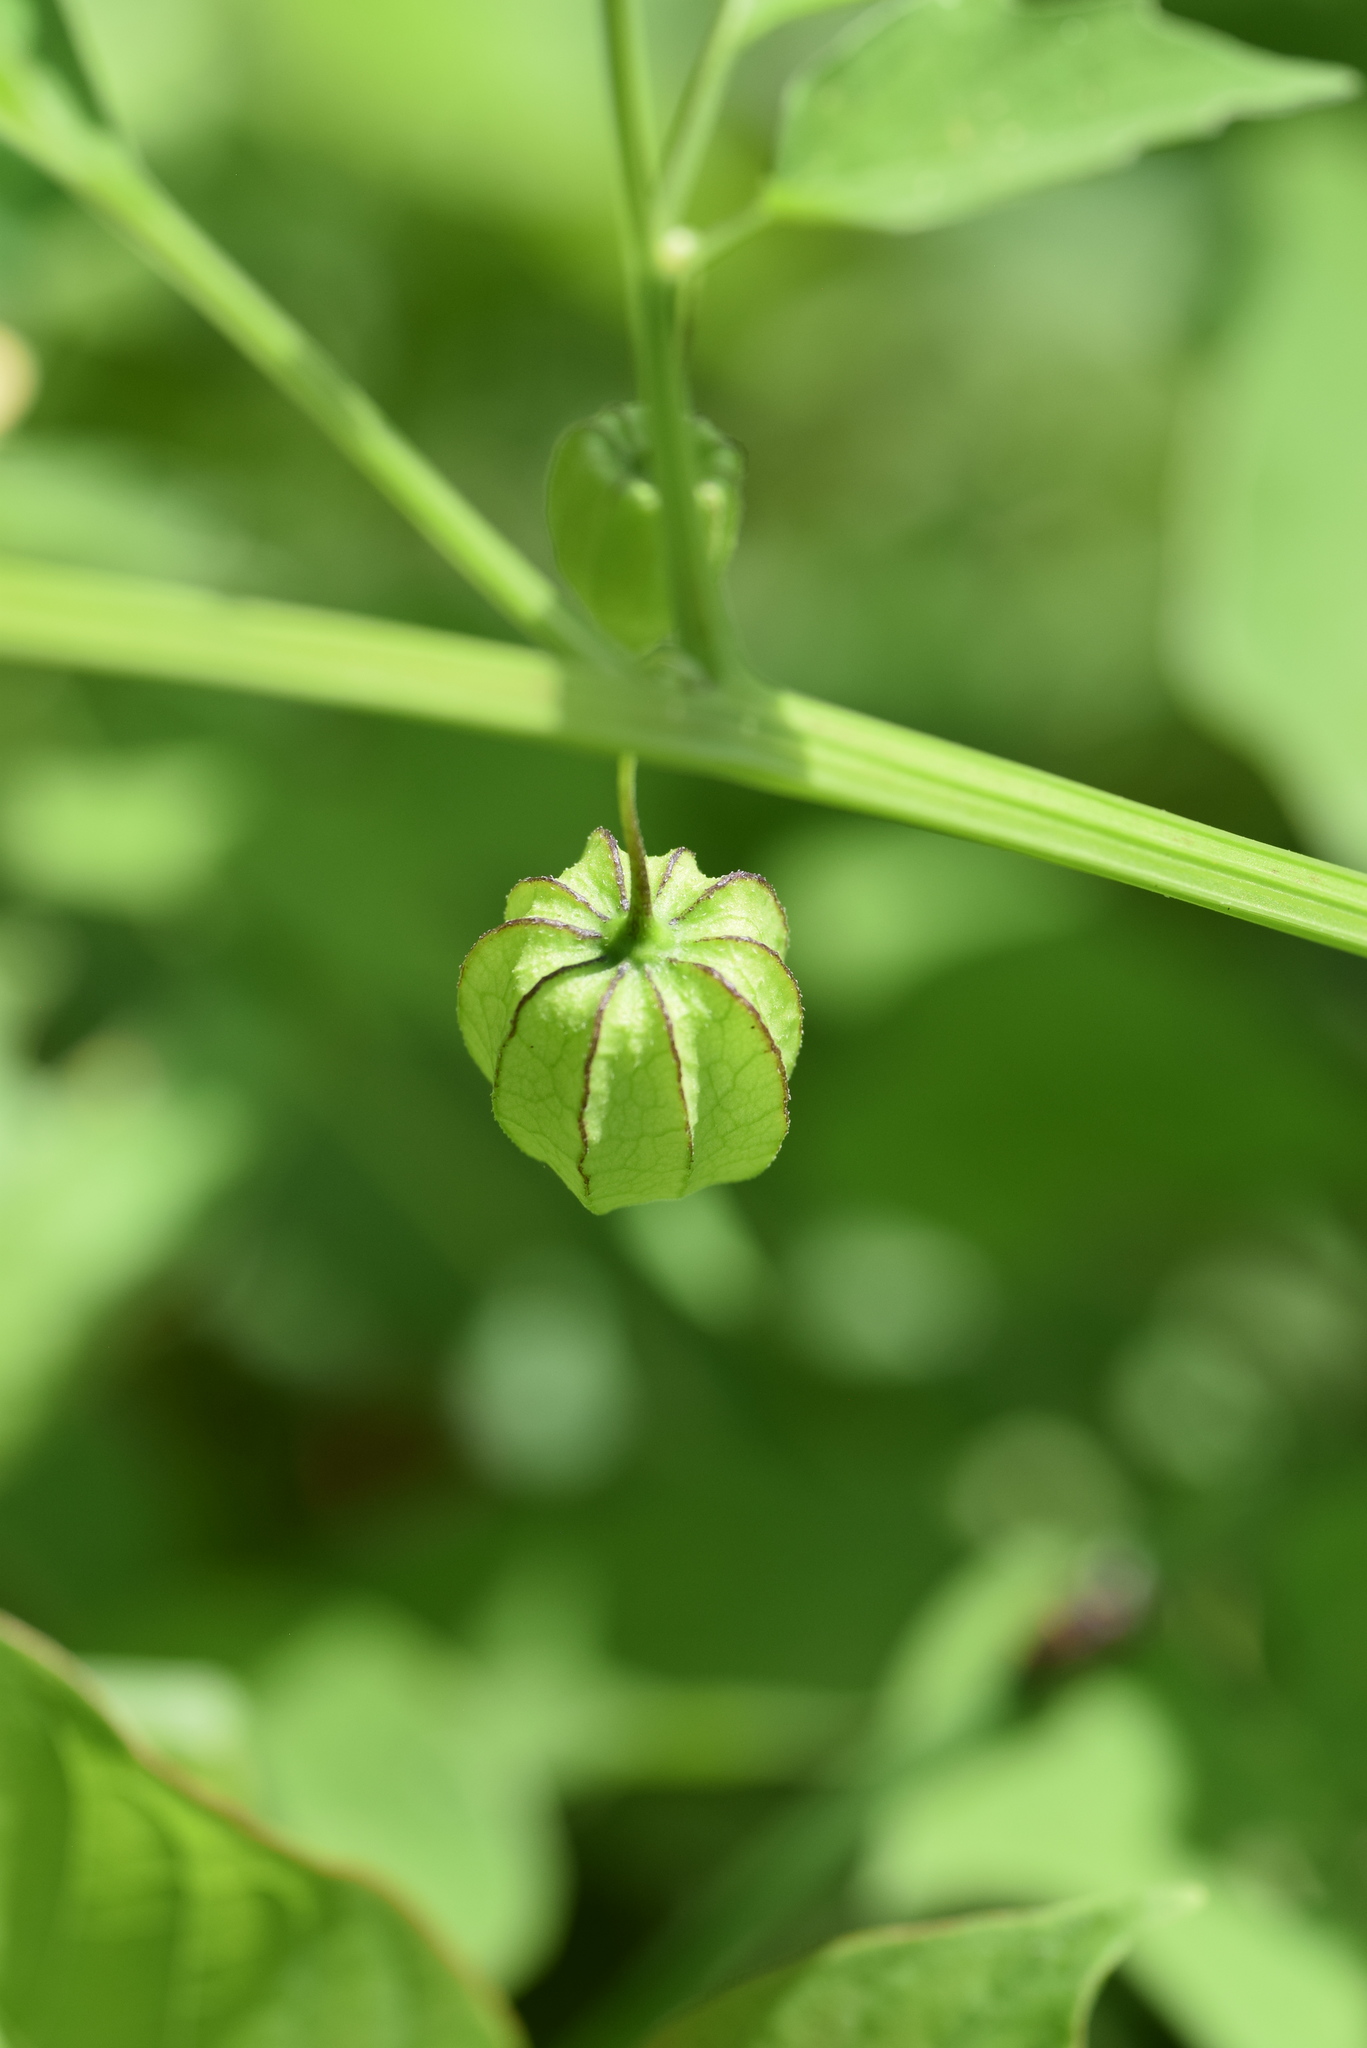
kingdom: Plantae
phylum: Tracheophyta
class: Magnoliopsida
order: Solanales
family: Solanaceae
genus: Physalis
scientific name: Physalis angulata
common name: Angular winter-cherry
